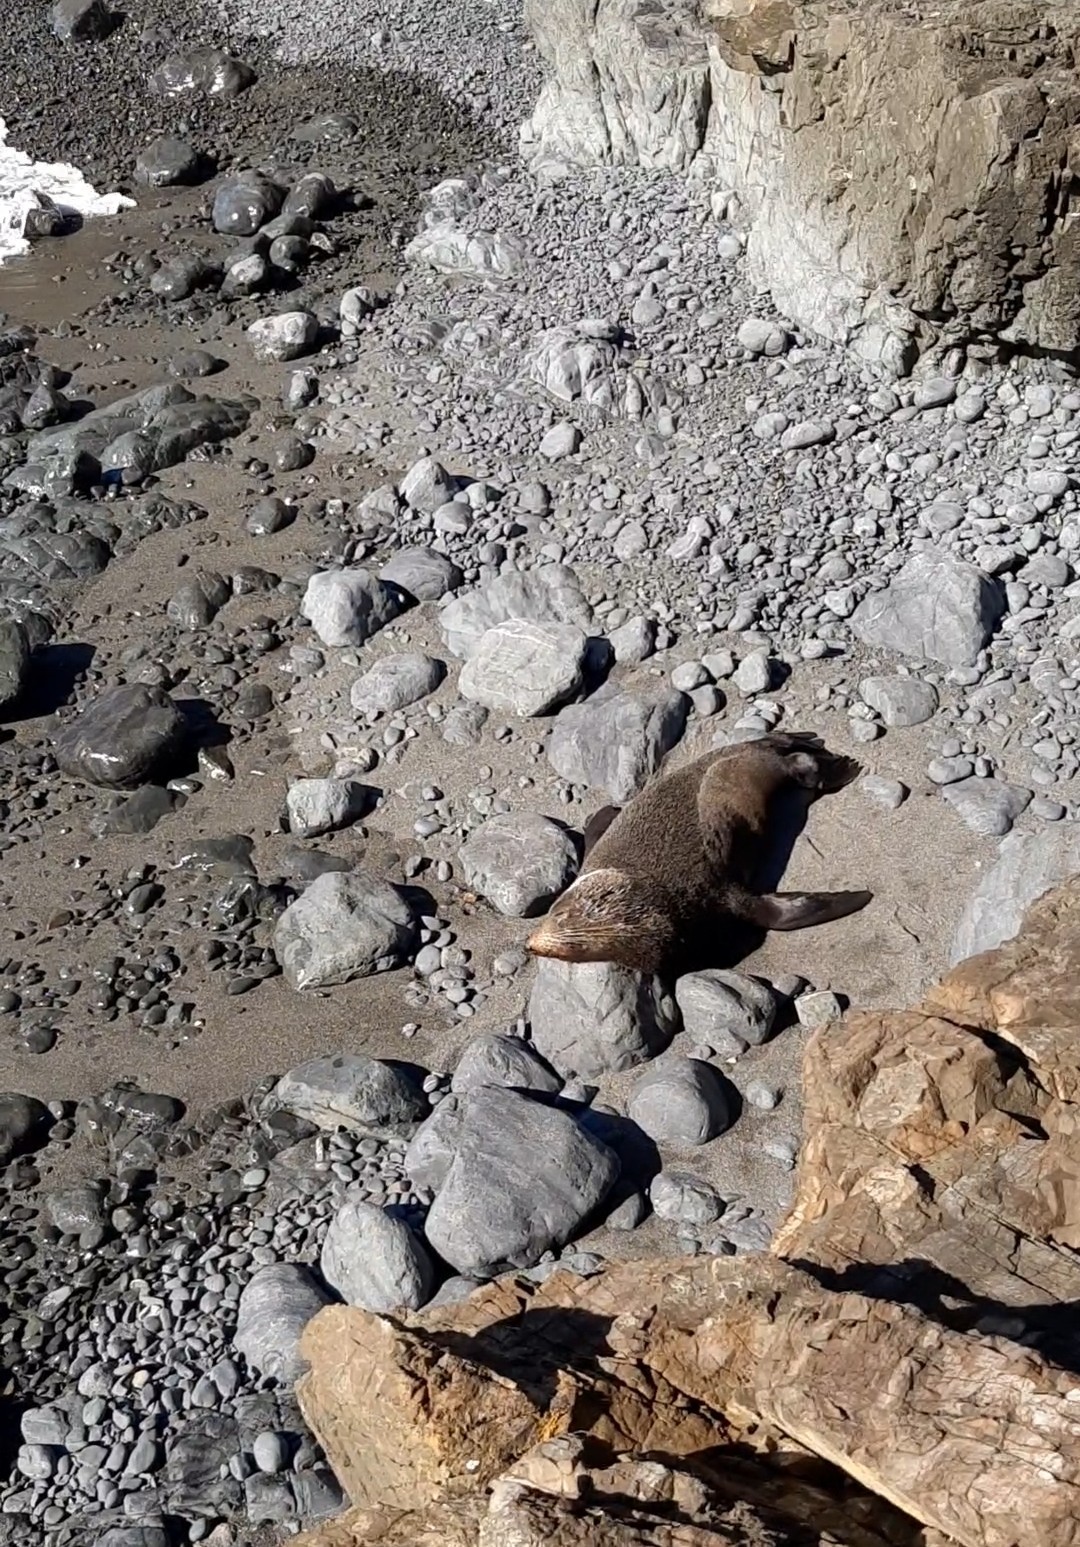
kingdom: Animalia
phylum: Chordata
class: Mammalia
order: Carnivora
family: Otariidae
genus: Arctocephalus
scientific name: Arctocephalus forsteri
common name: New zealand fur seal
